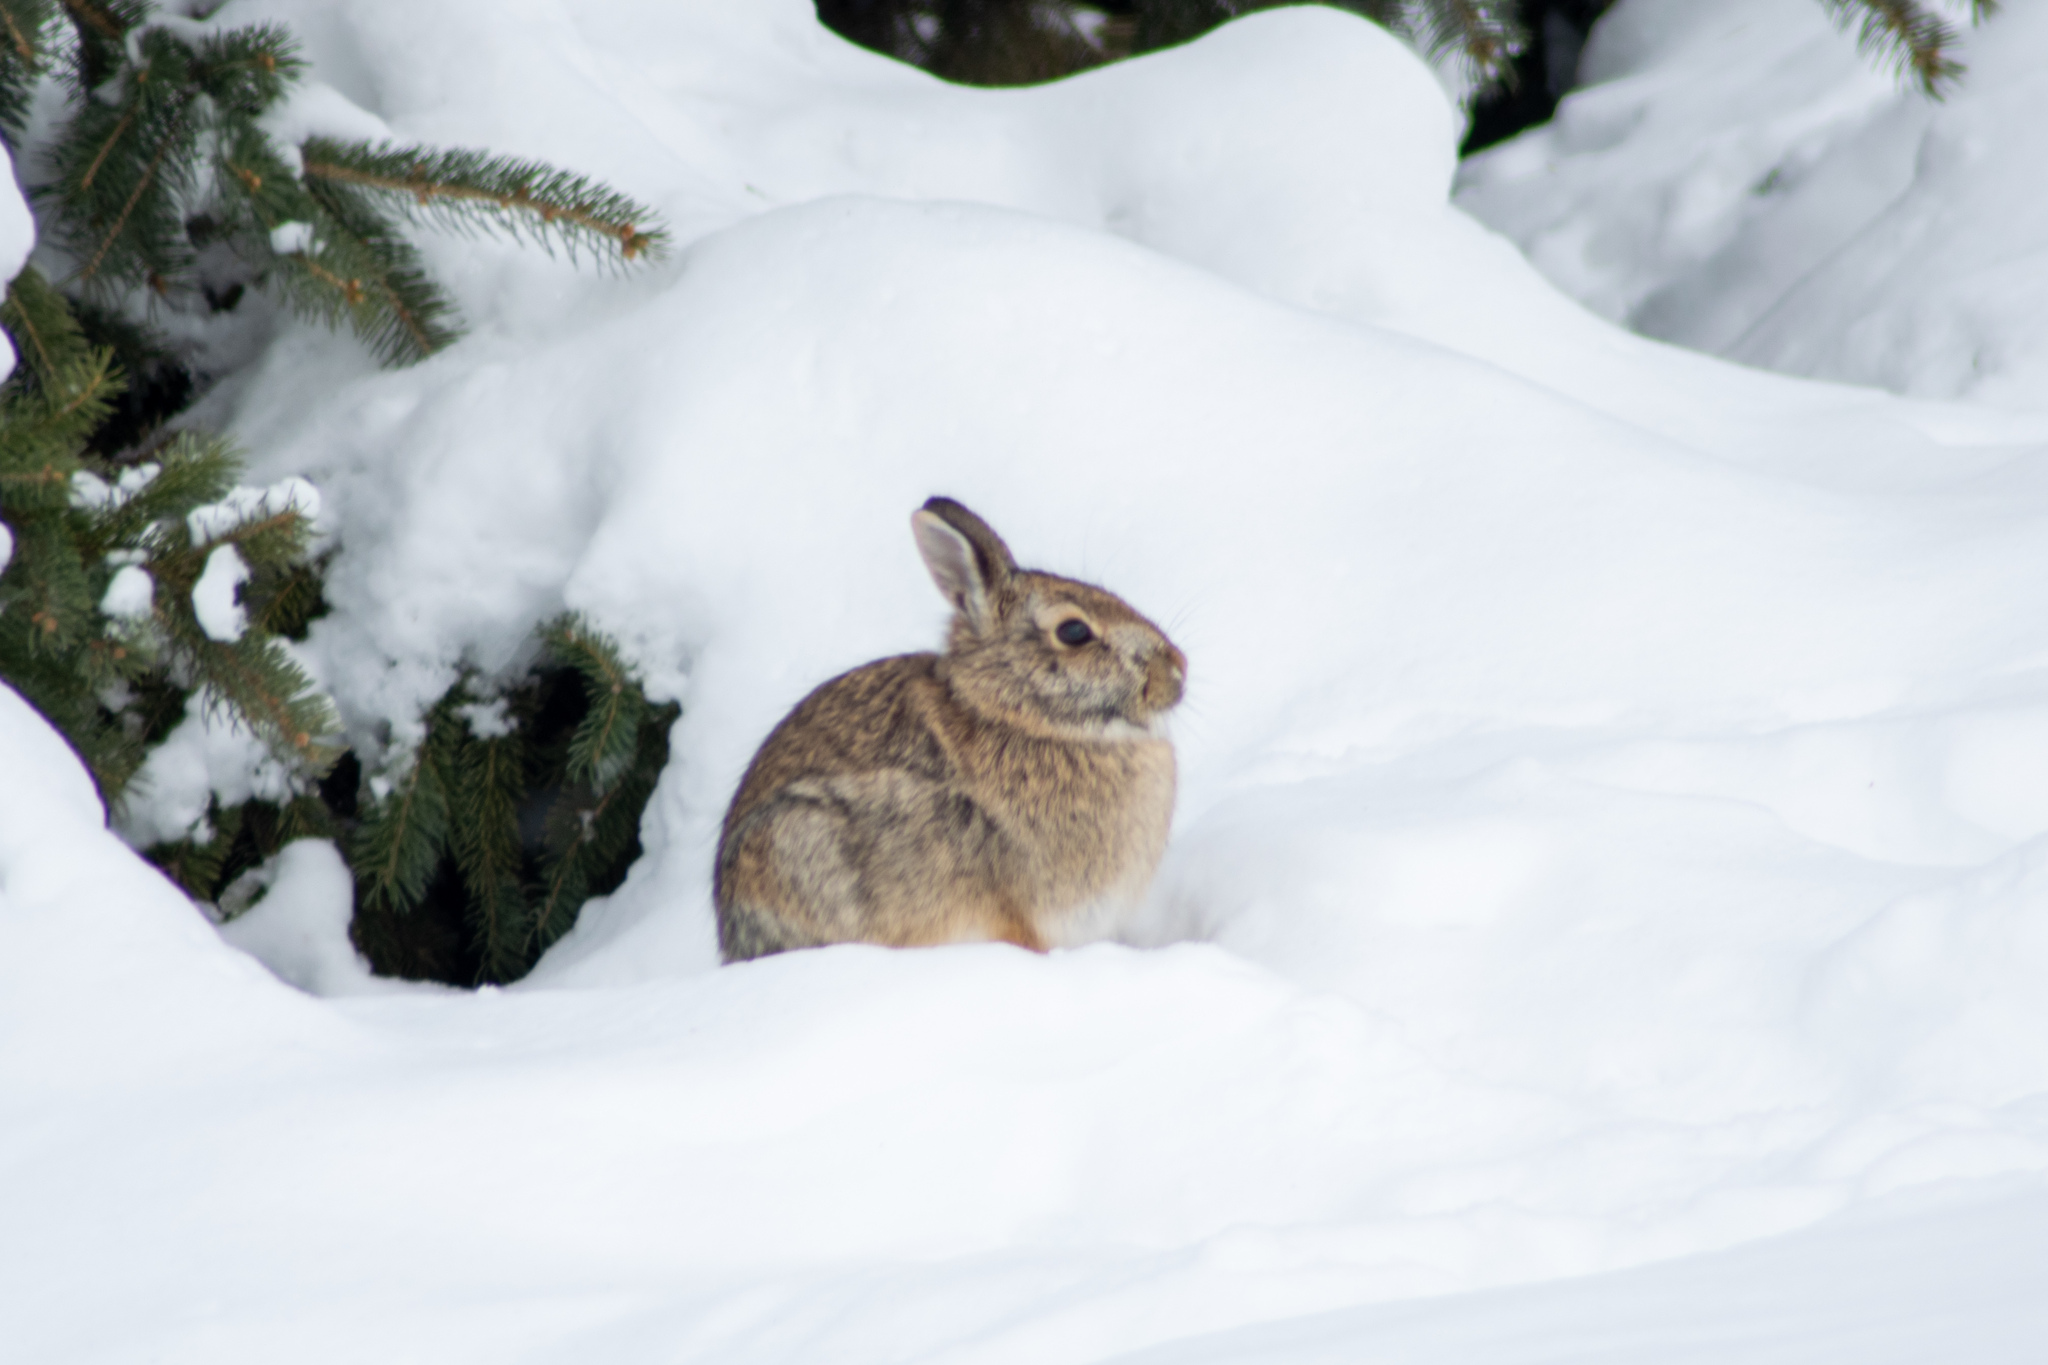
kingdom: Animalia
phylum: Chordata
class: Mammalia
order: Lagomorpha
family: Leporidae
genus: Sylvilagus
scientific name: Sylvilagus floridanus
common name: Eastern cottontail
